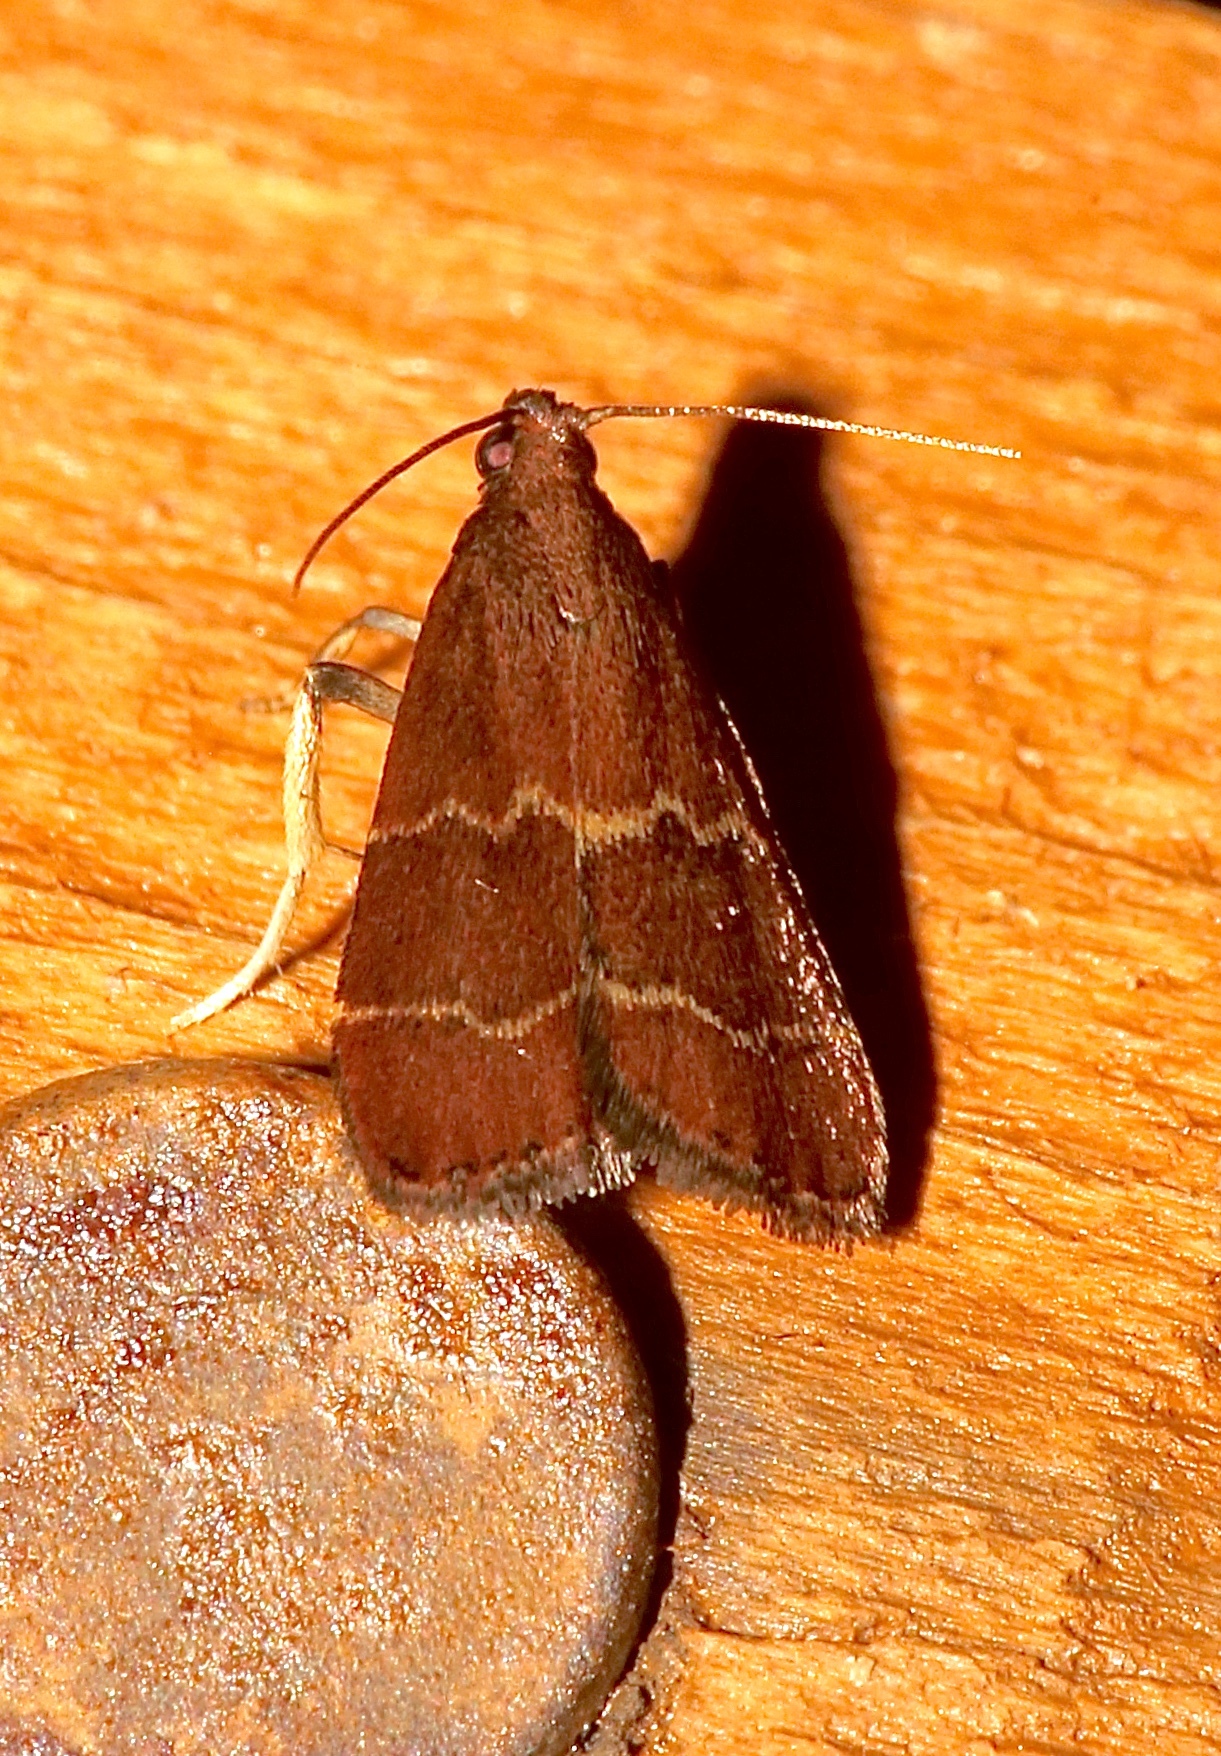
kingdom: Animalia
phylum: Arthropoda
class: Insecta
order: Lepidoptera
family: Pyralidae
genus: Arta
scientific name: Arta
